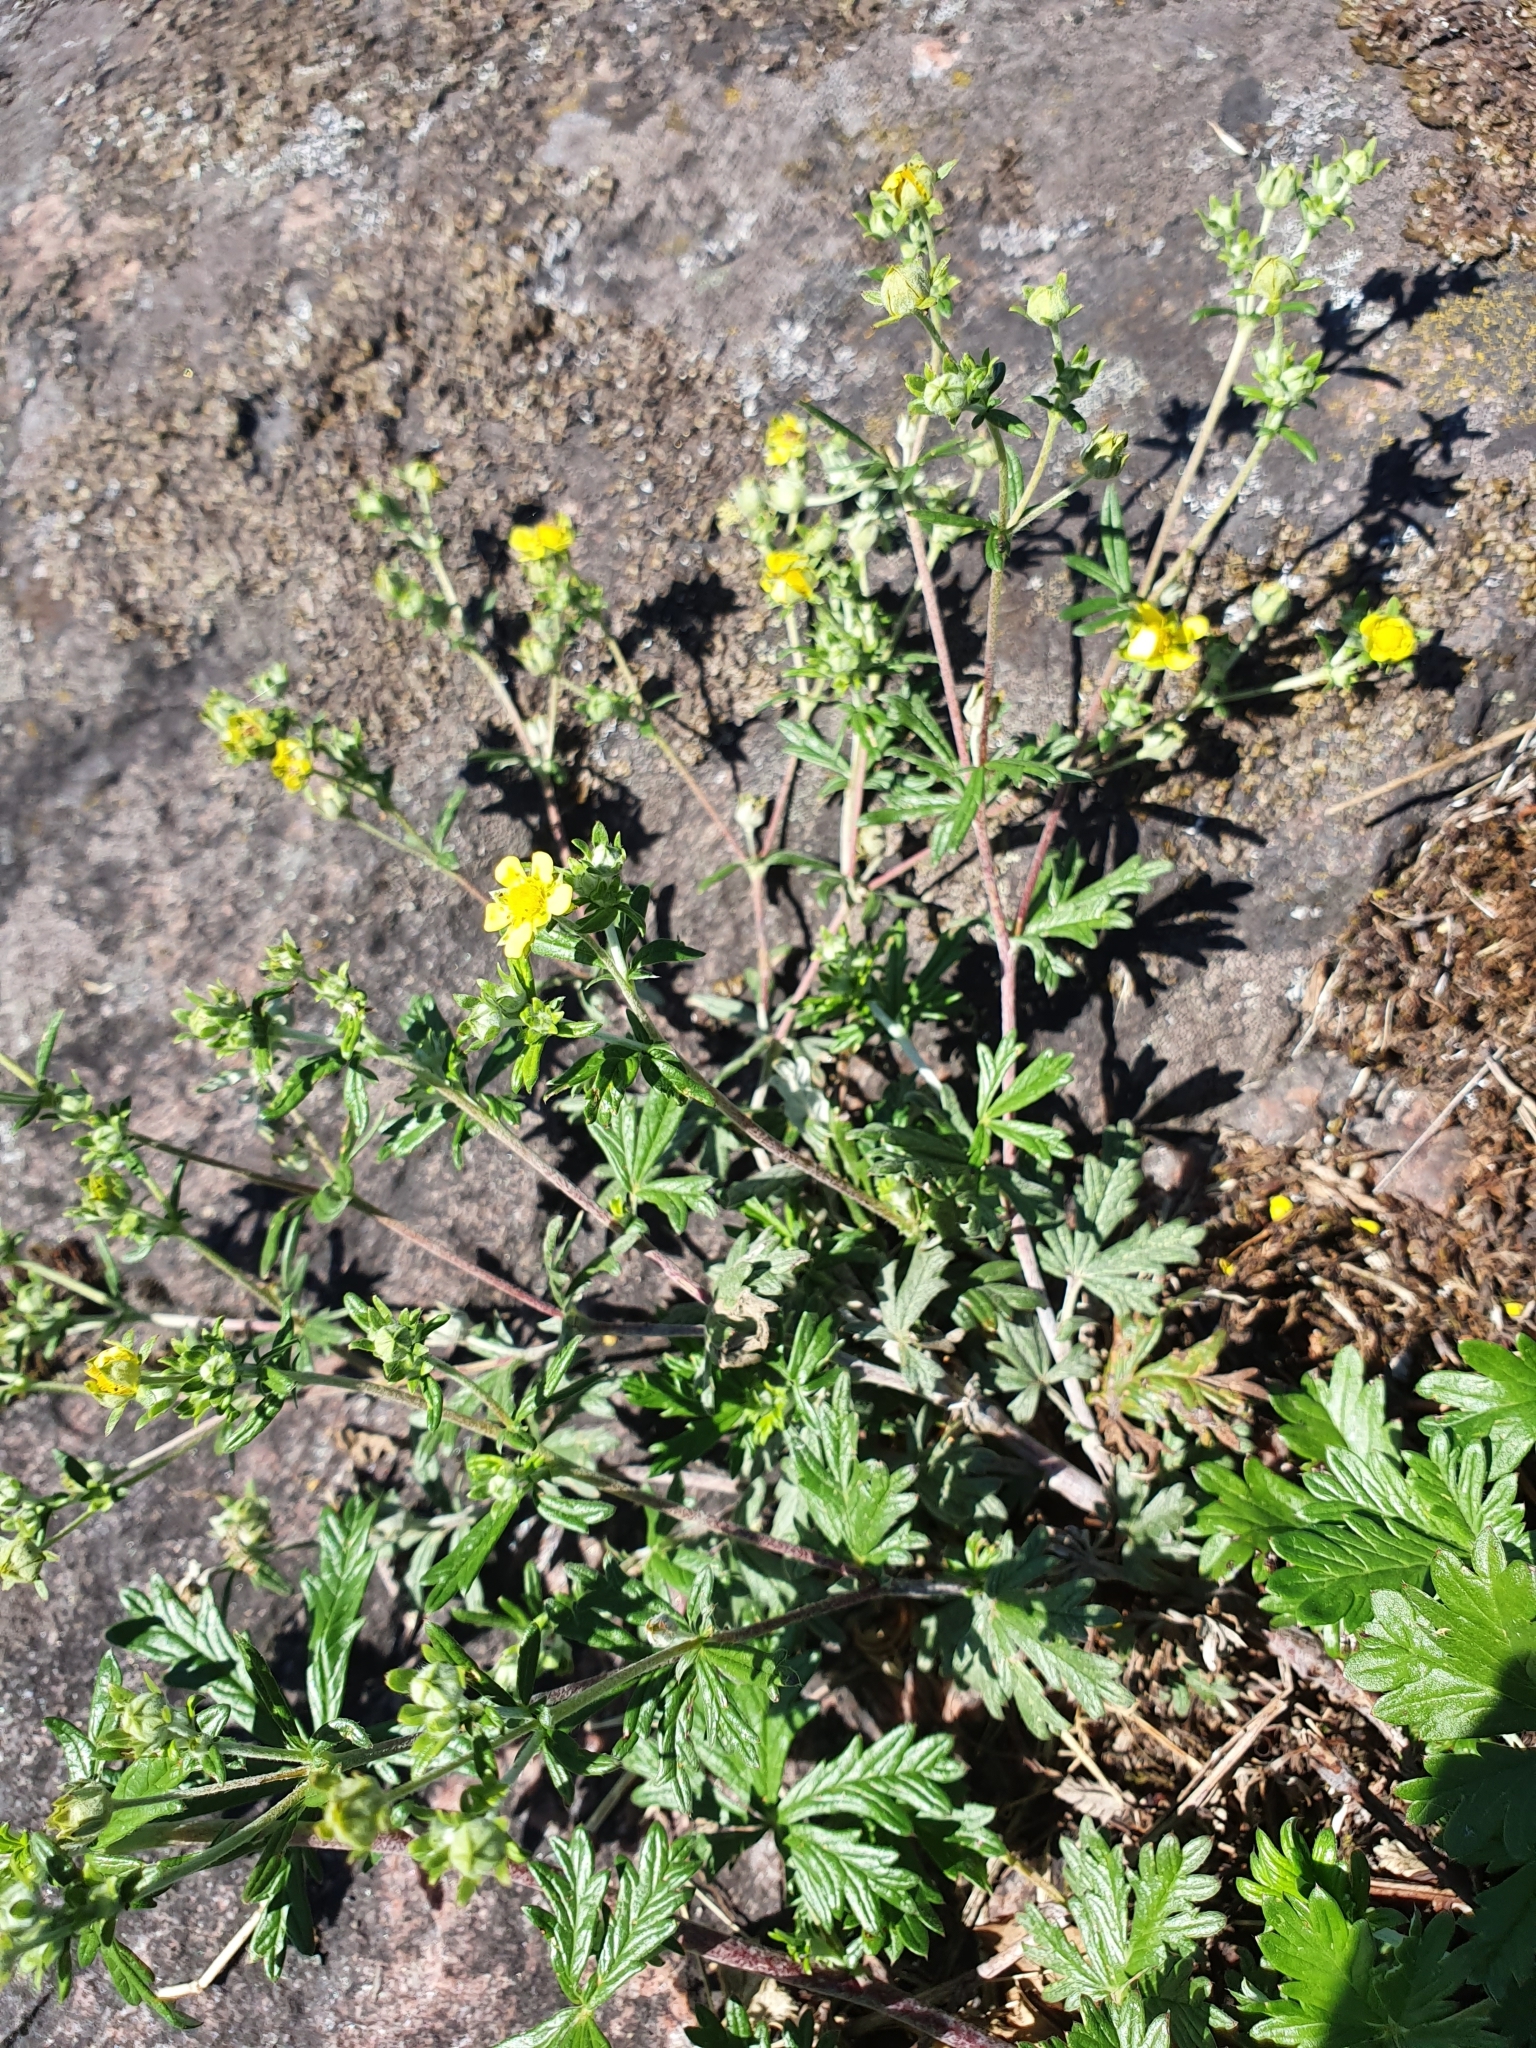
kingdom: Plantae
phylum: Tracheophyta
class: Magnoliopsida
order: Rosales
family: Rosaceae
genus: Potentilla
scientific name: Potentilla argentea
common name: Hoary cinquefoil
